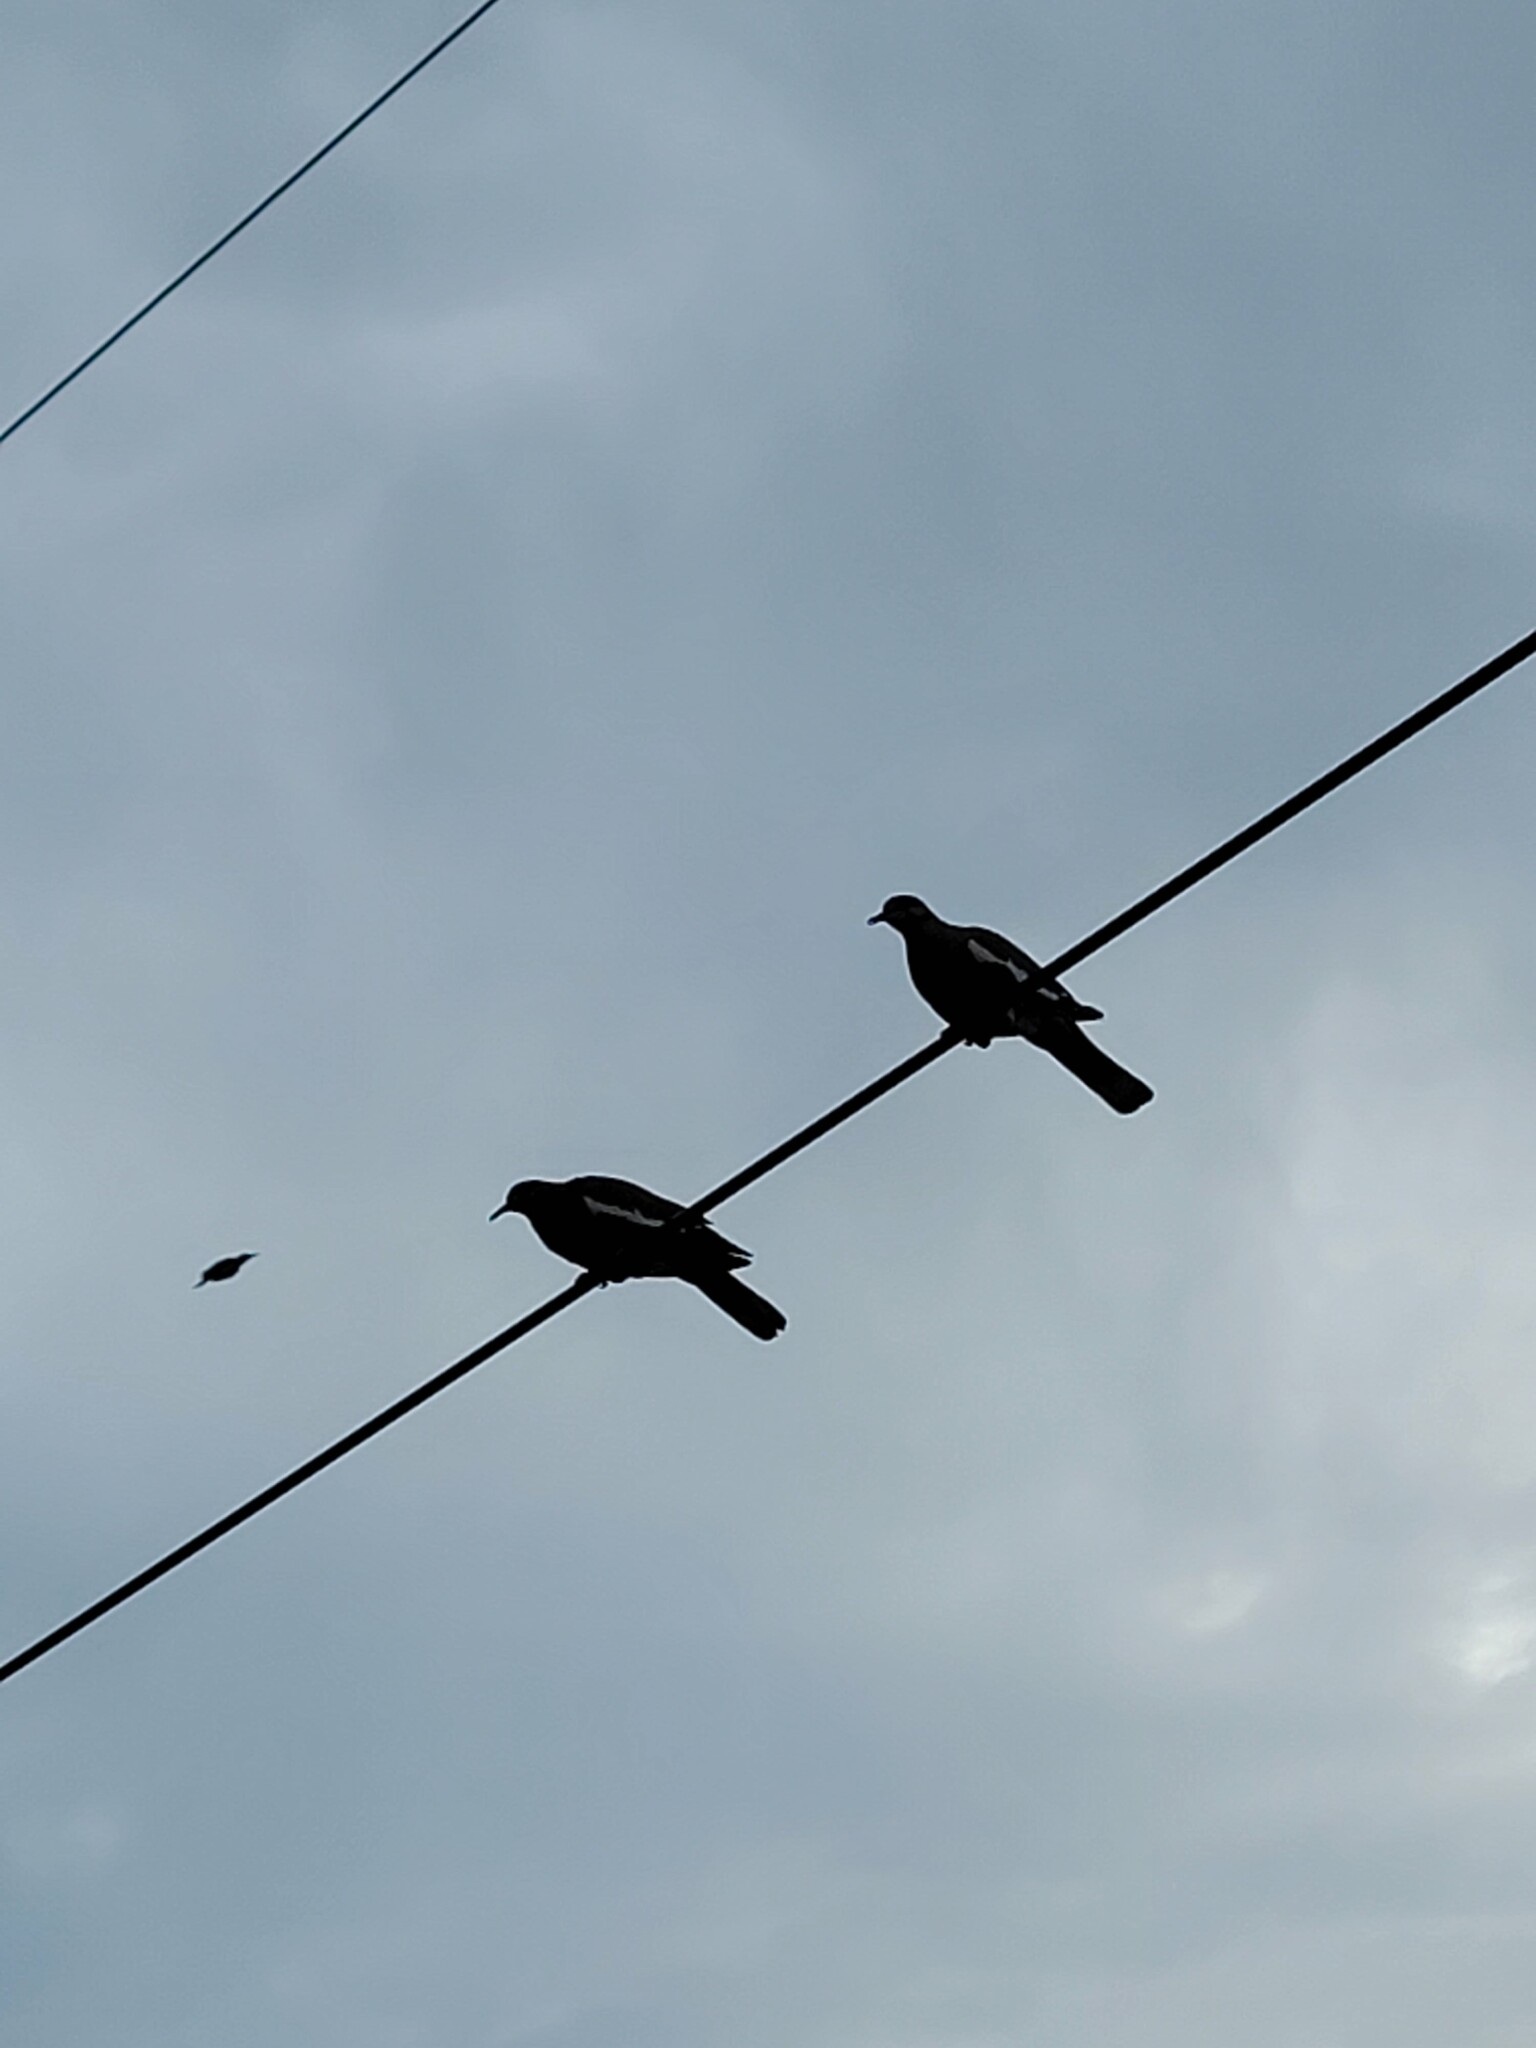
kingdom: Animalia
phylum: Chordata
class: Aves
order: Columbiformes
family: Columbidae
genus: Zenaida
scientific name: Zenaida asiatica
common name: White-winged dove
